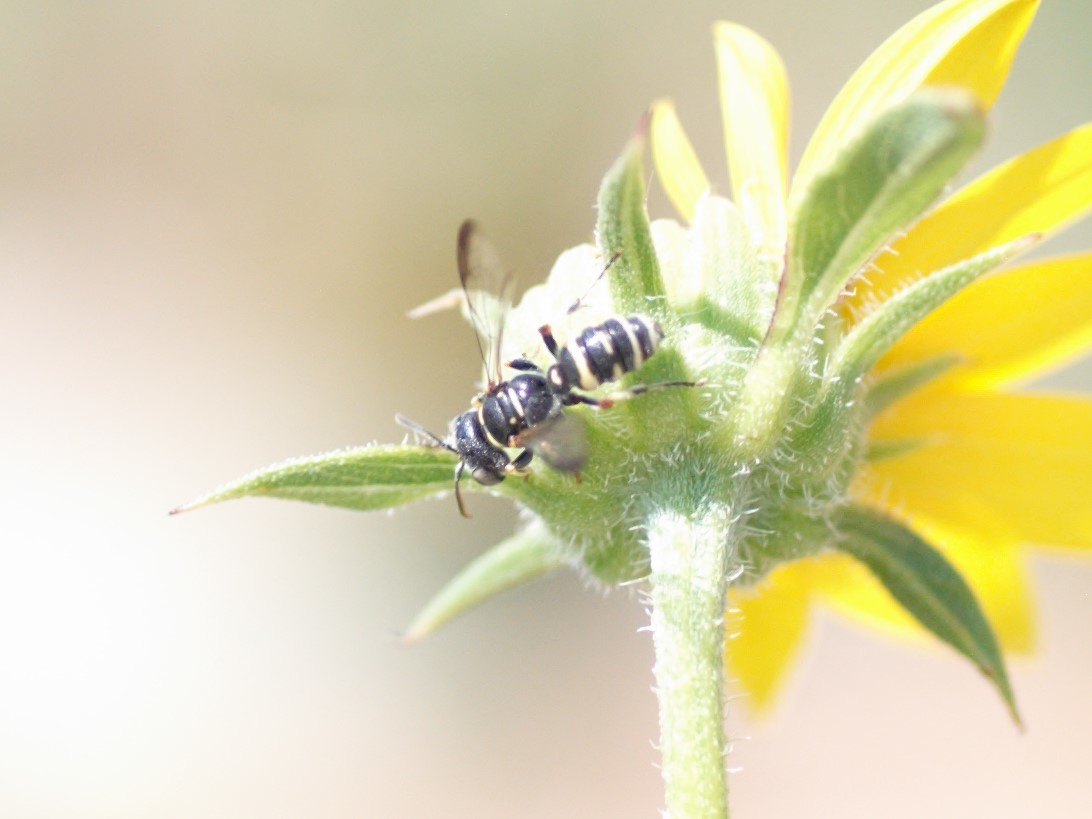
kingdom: Animalia
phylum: Arthropoda
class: Insecta
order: Hymenoptera
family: Crabronidae
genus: Cerceris
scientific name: Cerceris convergens
